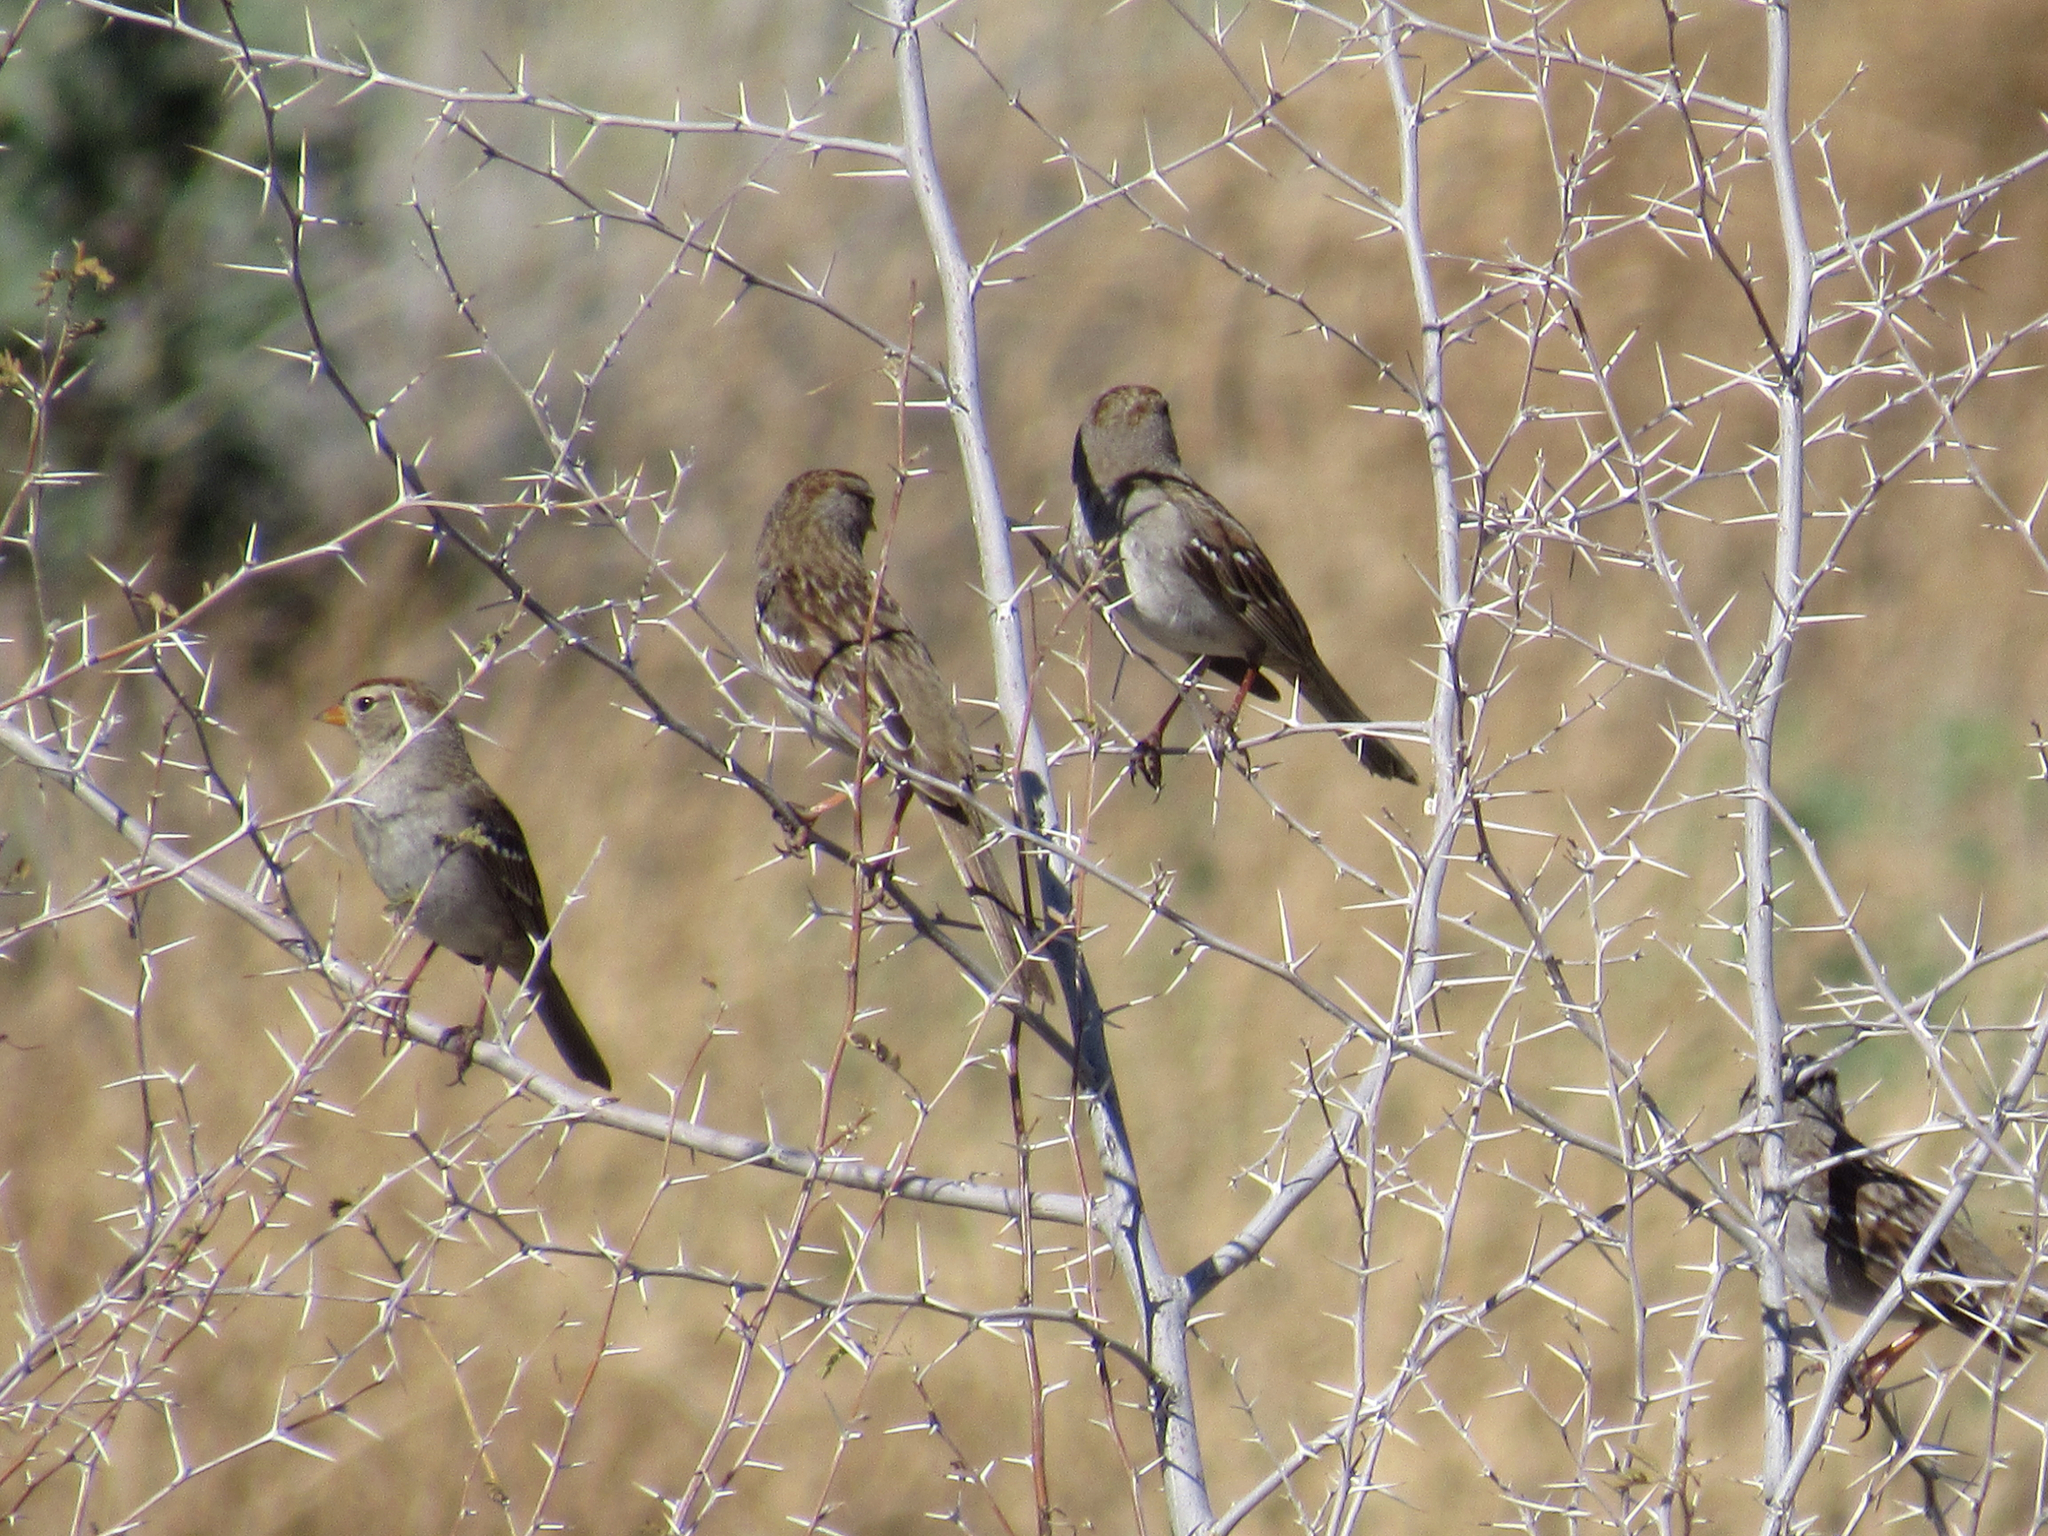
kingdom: Animalia
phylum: Chordata
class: Aves
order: Passeriformes
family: Passerellidae
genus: Zonotrichia
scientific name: Zonotrichia leucophrys
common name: White-crowned sparrow
